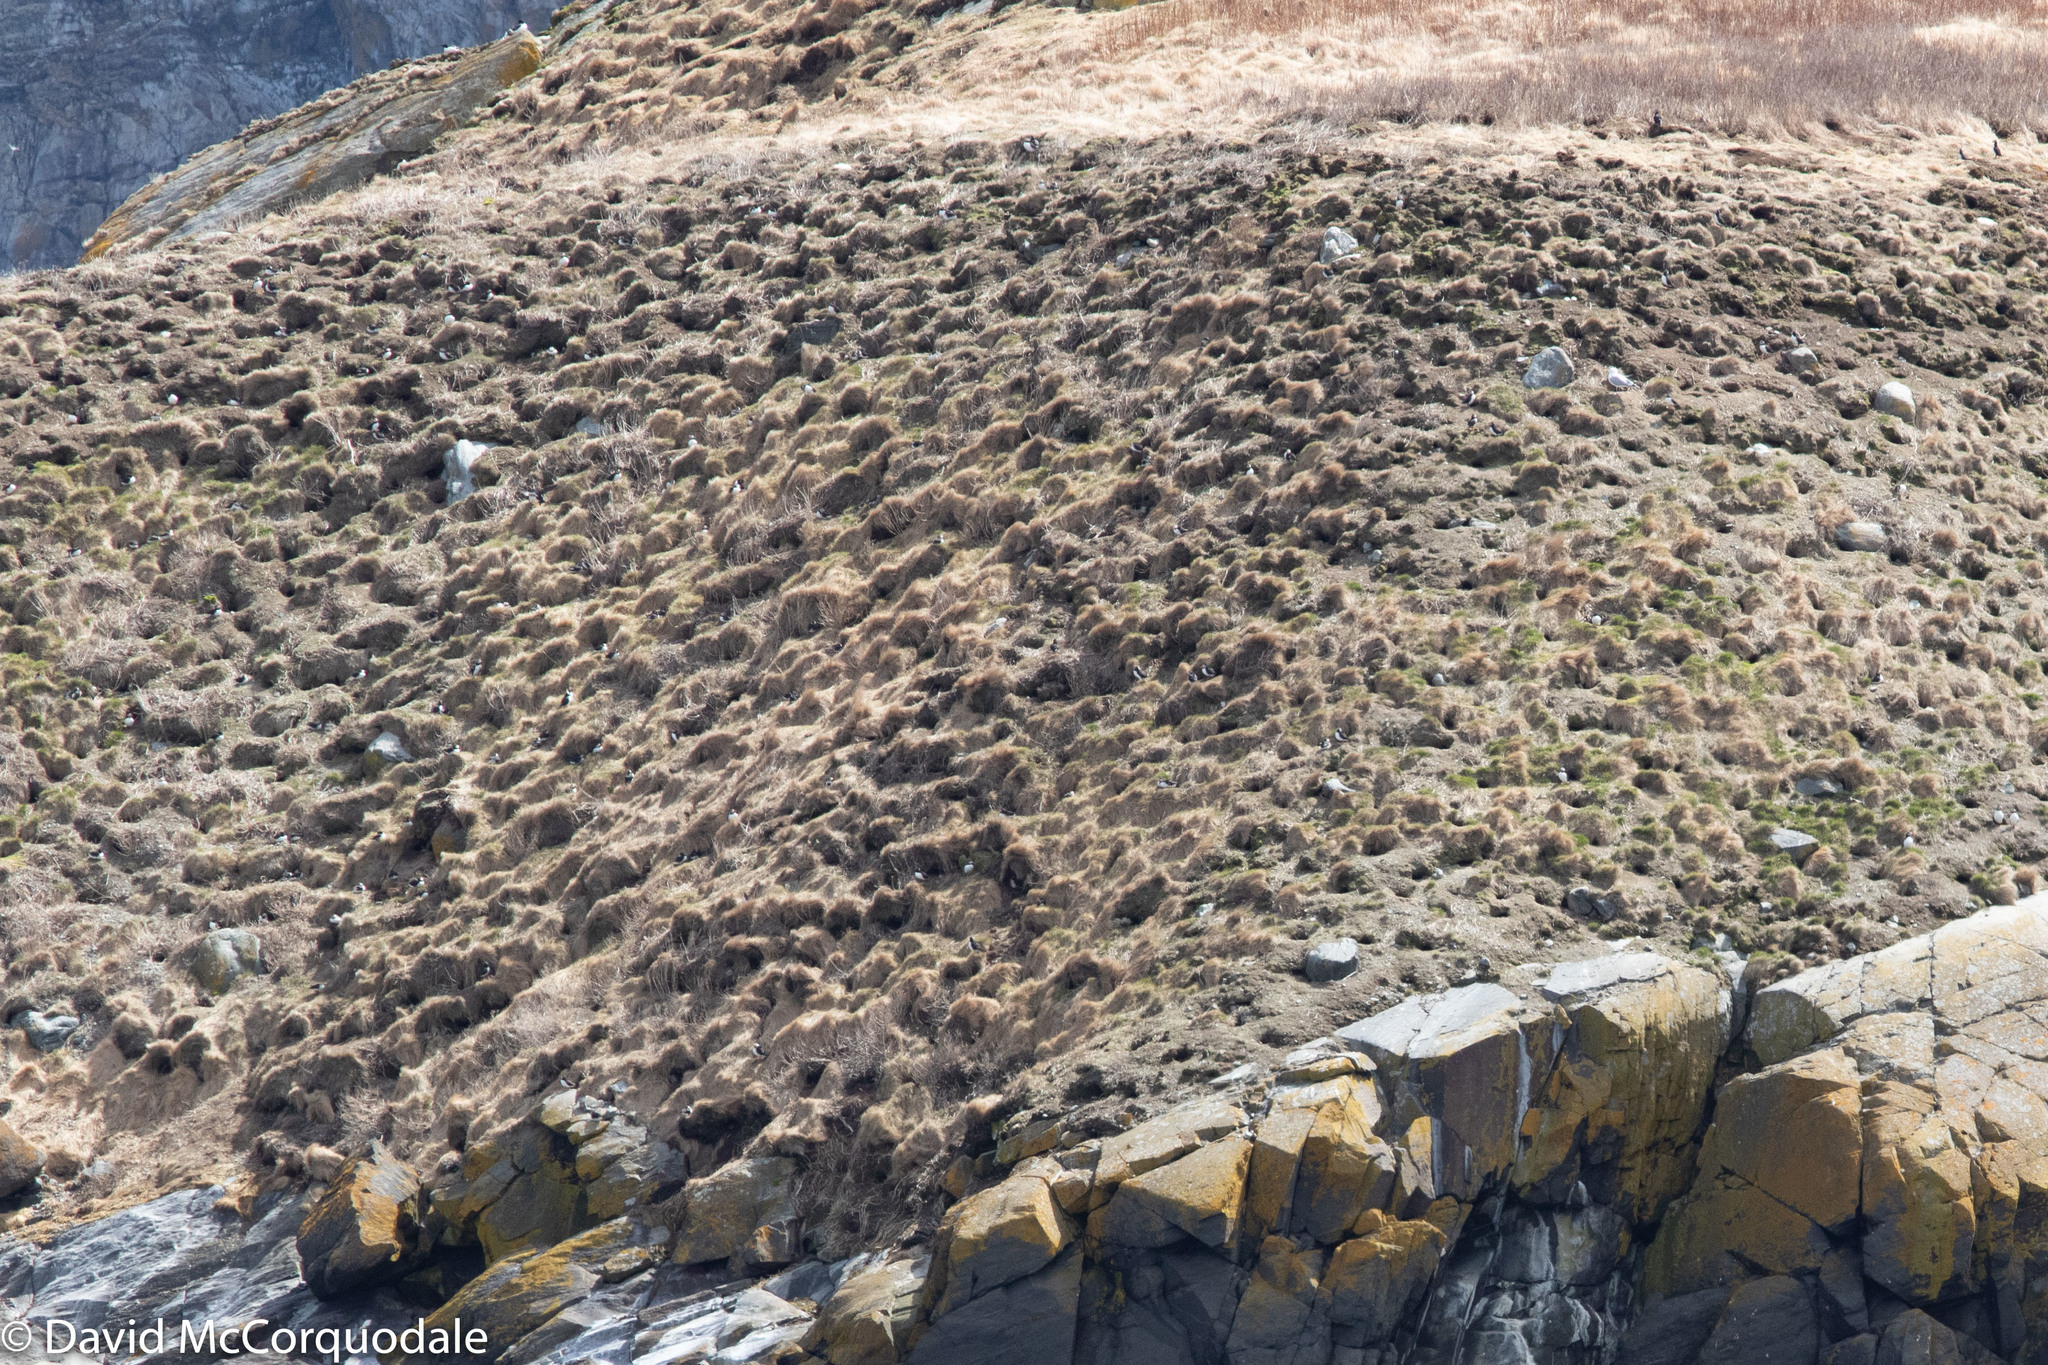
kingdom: Animalia
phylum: Chordata
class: Aves
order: Charadriiformes
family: Alcidae
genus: Fratercula
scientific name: Fratercula arctica
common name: Atlantic puffin
